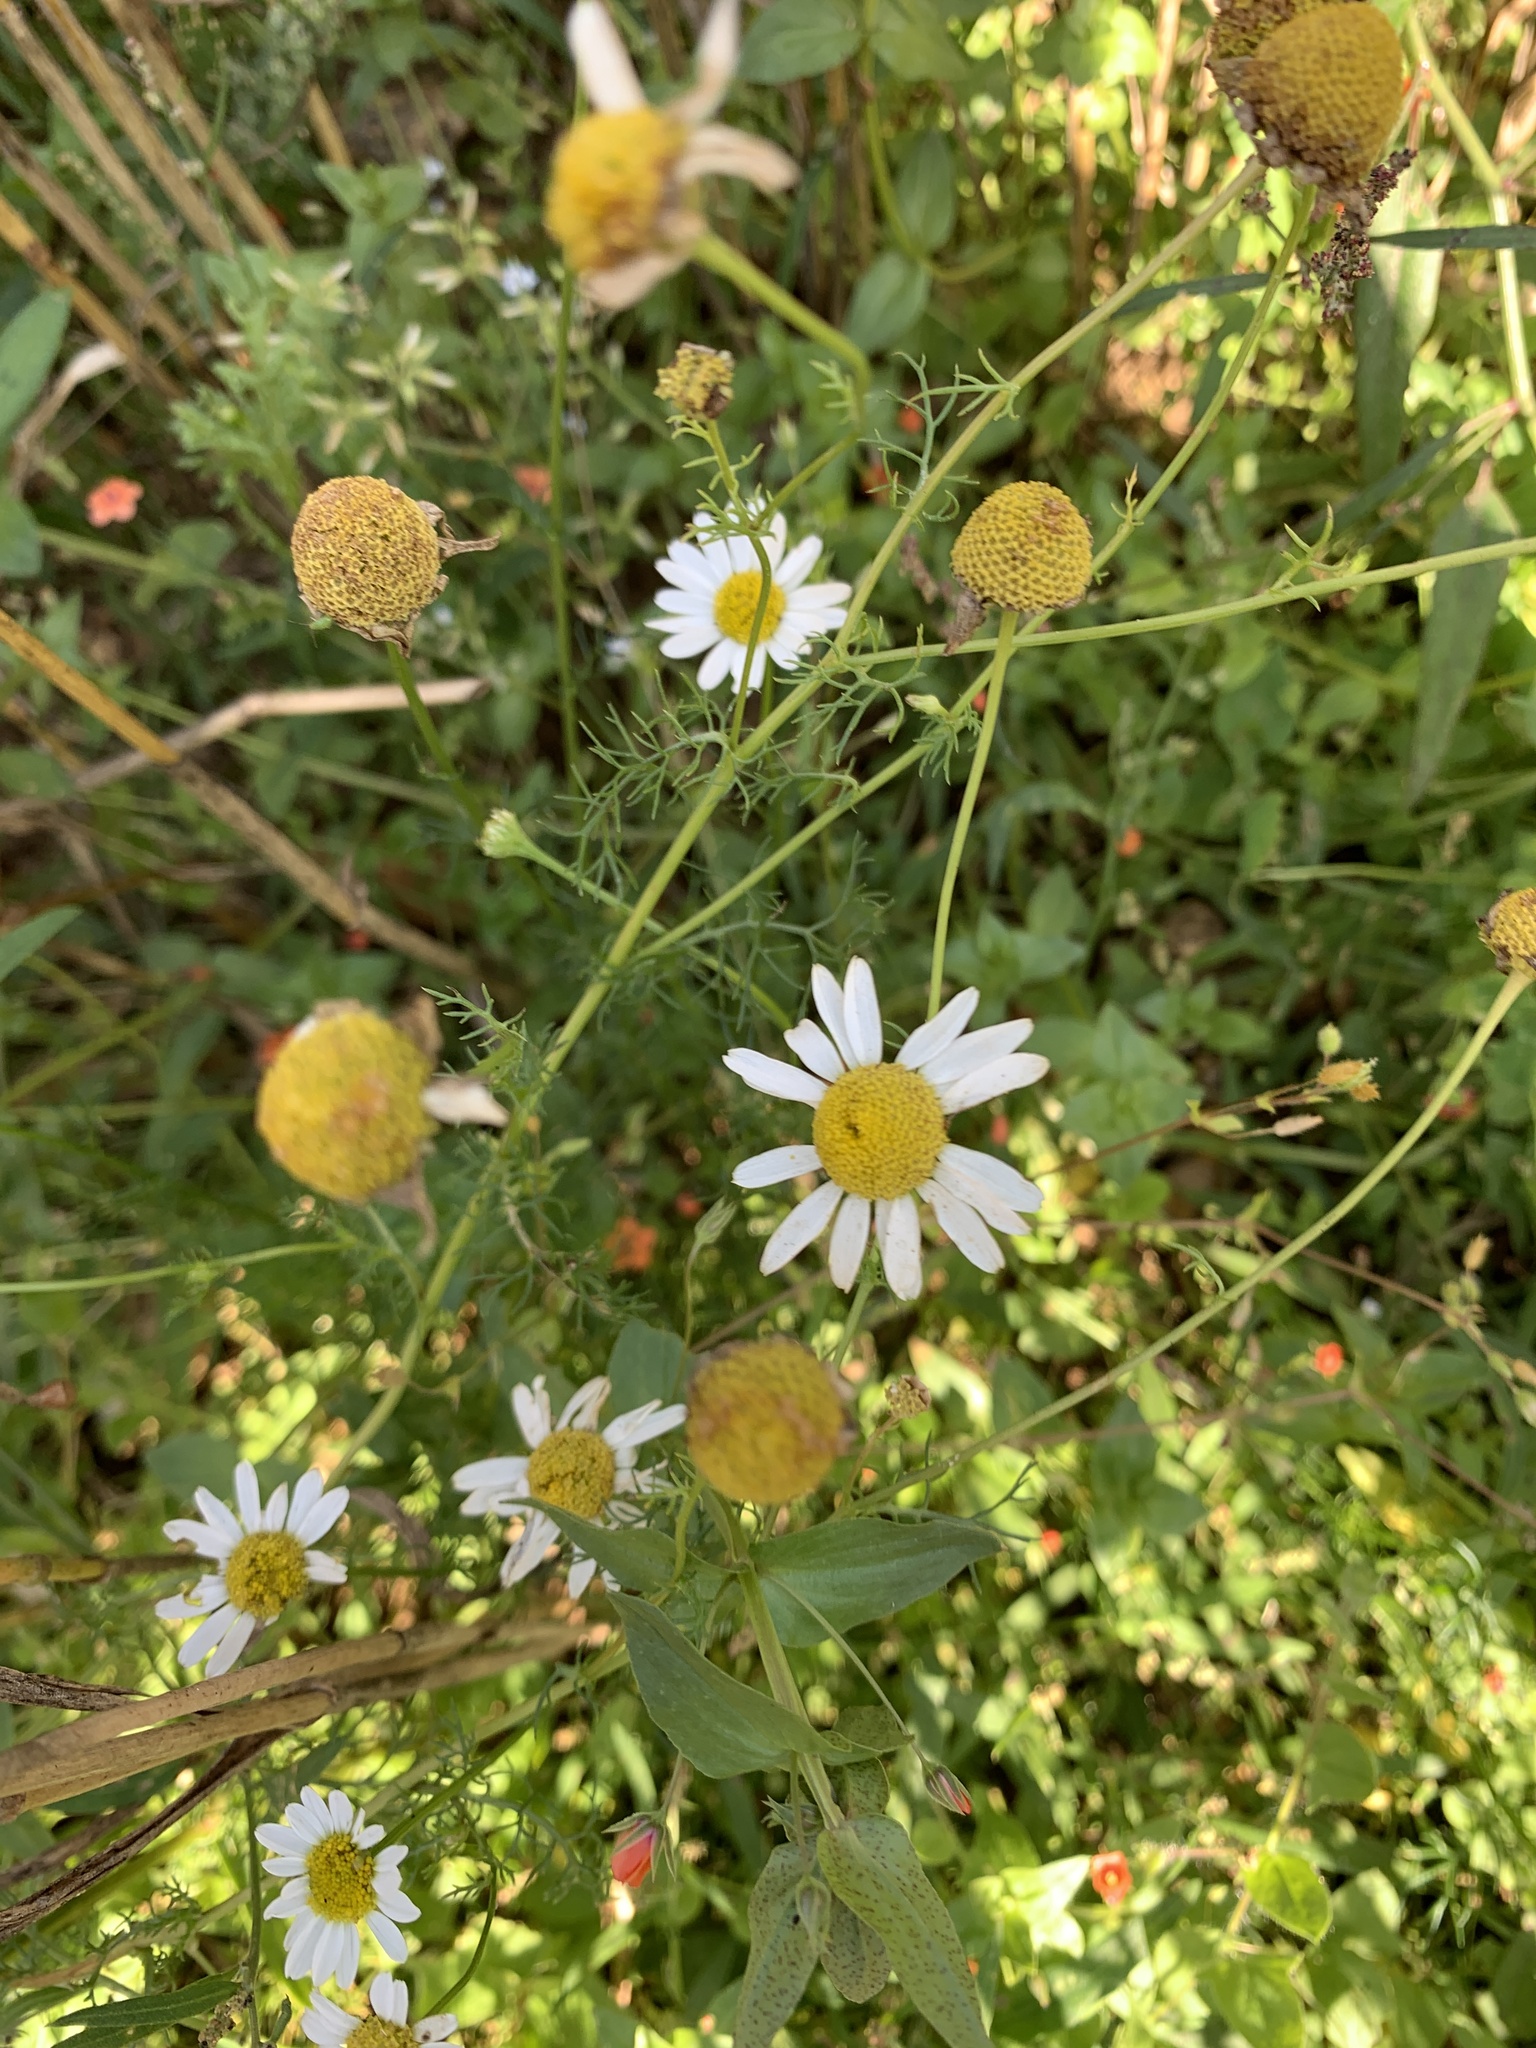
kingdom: Plantae
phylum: Tracheophyta
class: Magnoliopsida
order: Asterales
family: Asteraceae
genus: Tripleurospermum
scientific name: Tripleurospermum inodorum
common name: Scentless mayweed
